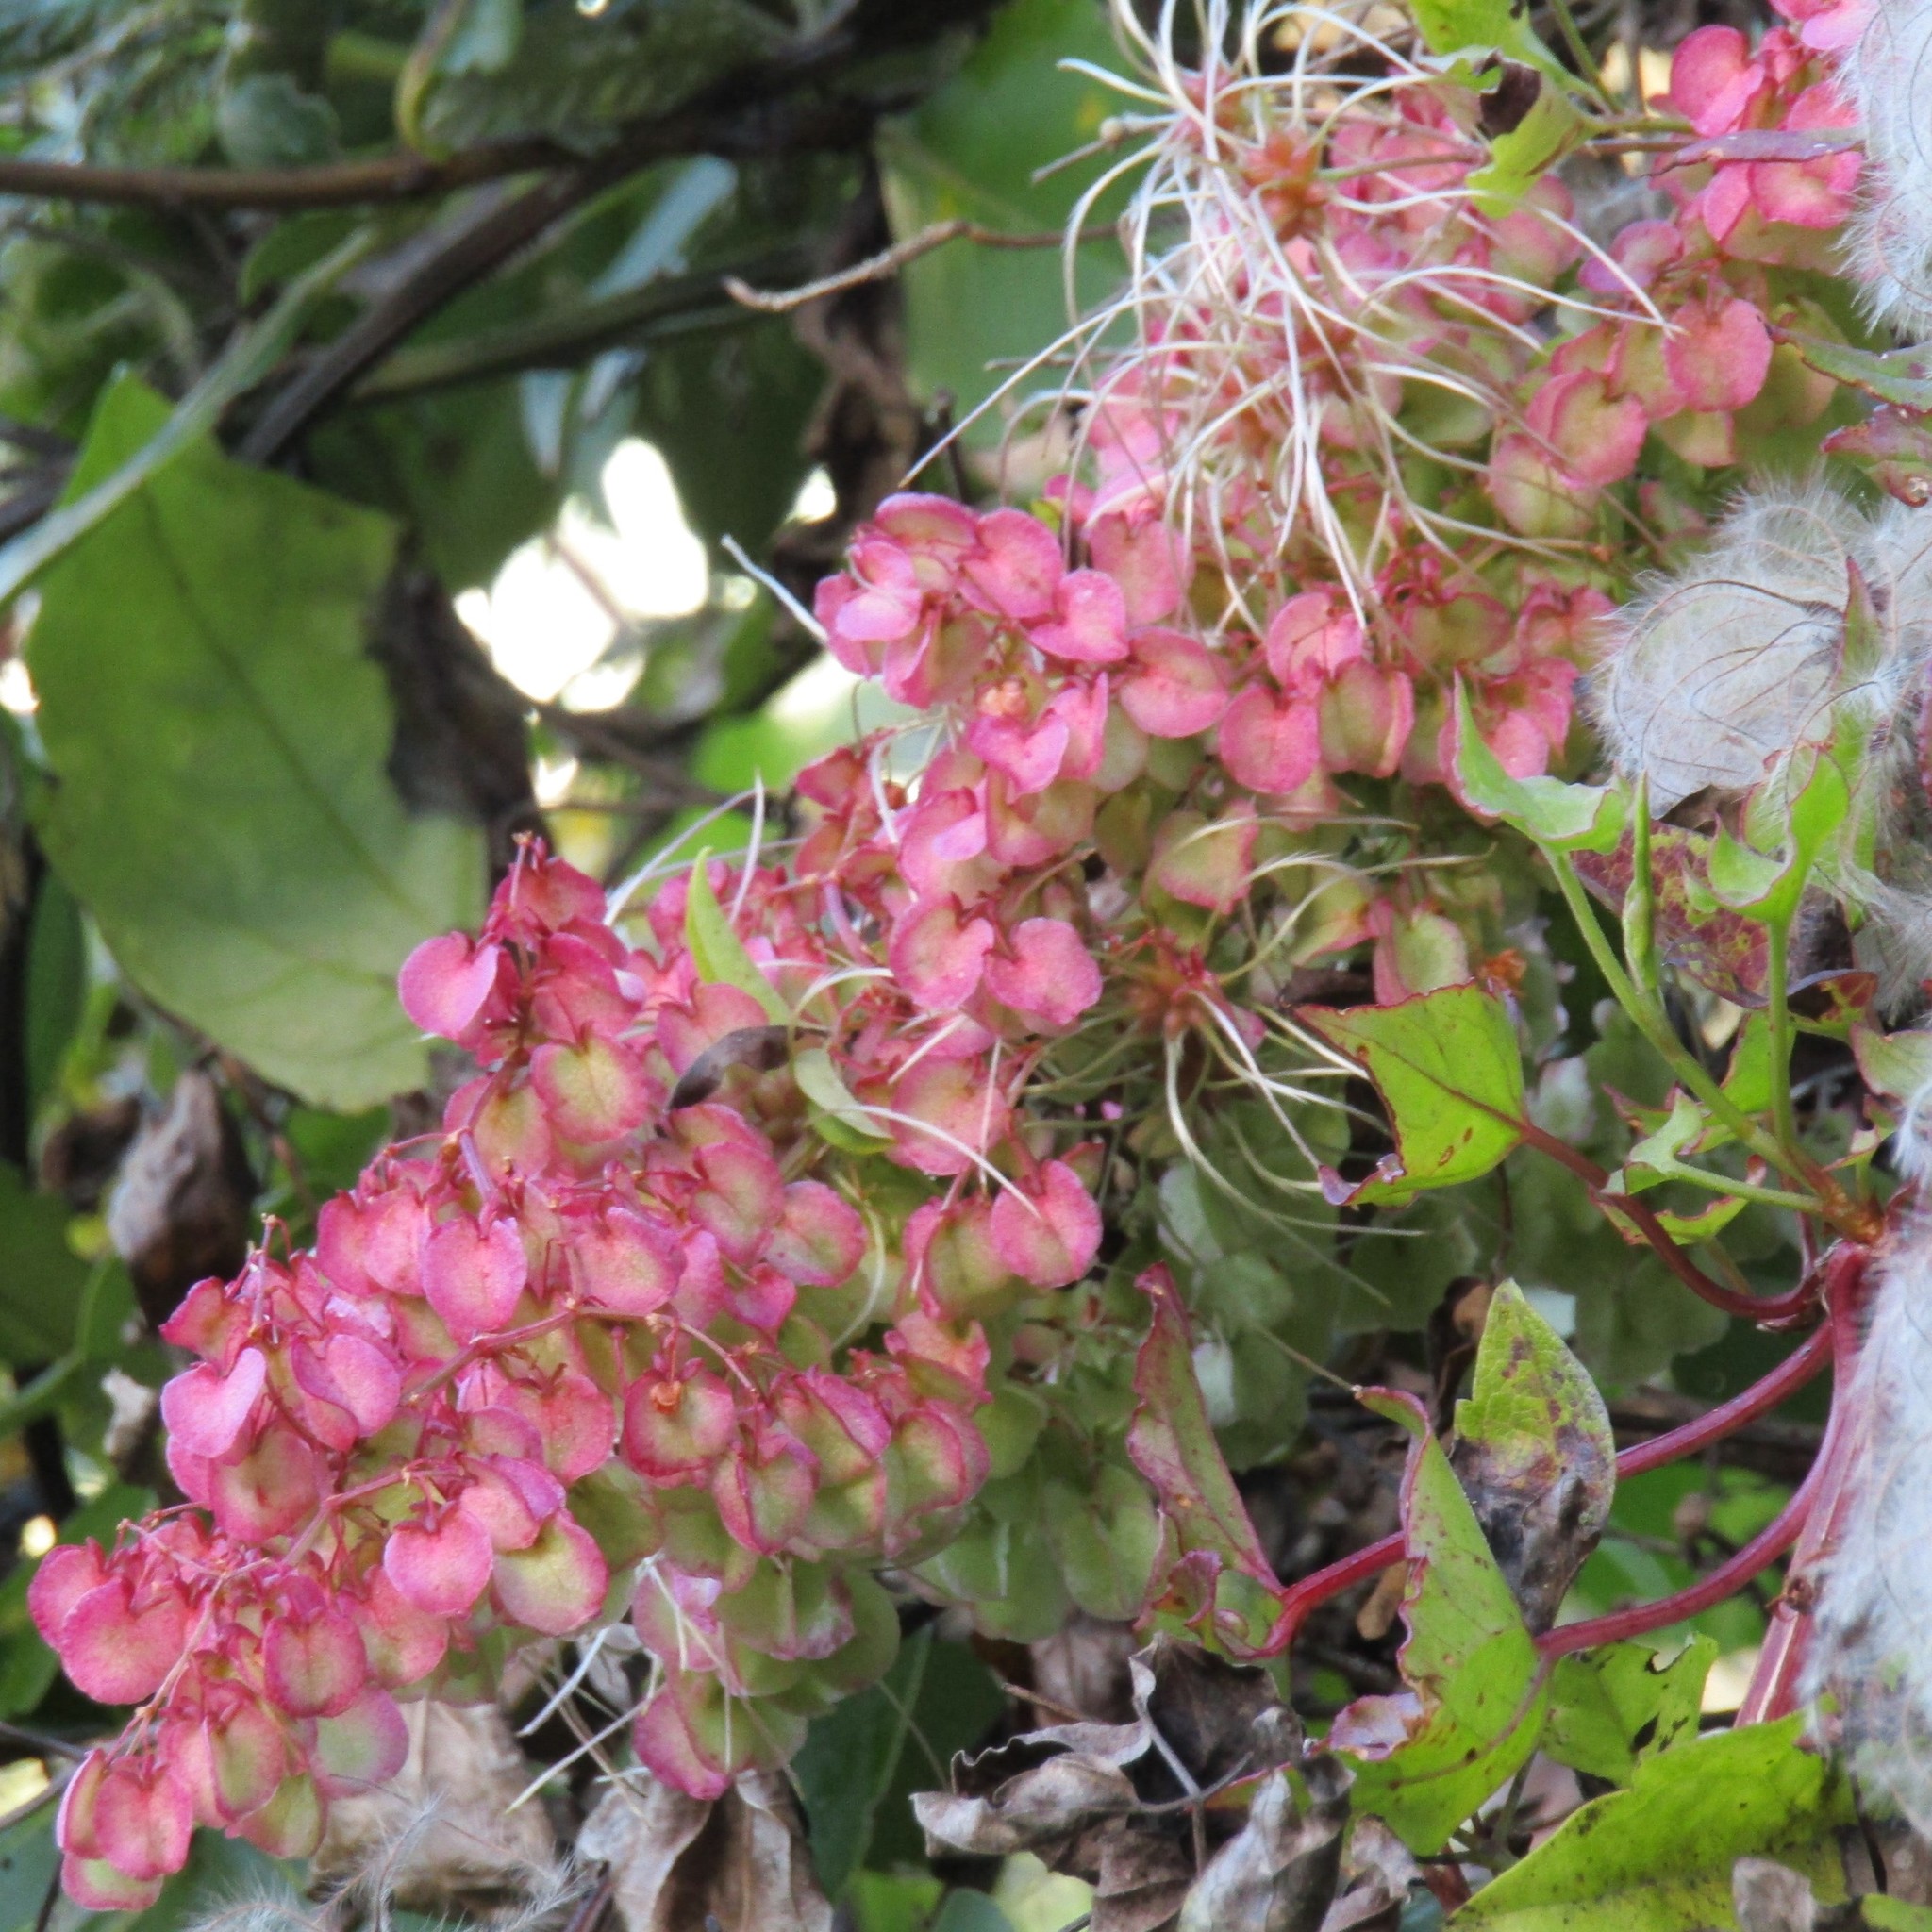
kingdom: Plantae
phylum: Tracheophyta
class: Magnoliopsida
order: Caryophyllales
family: Polygonaceae
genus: Rumex
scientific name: Rumex sagittatus
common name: Climbing dock
